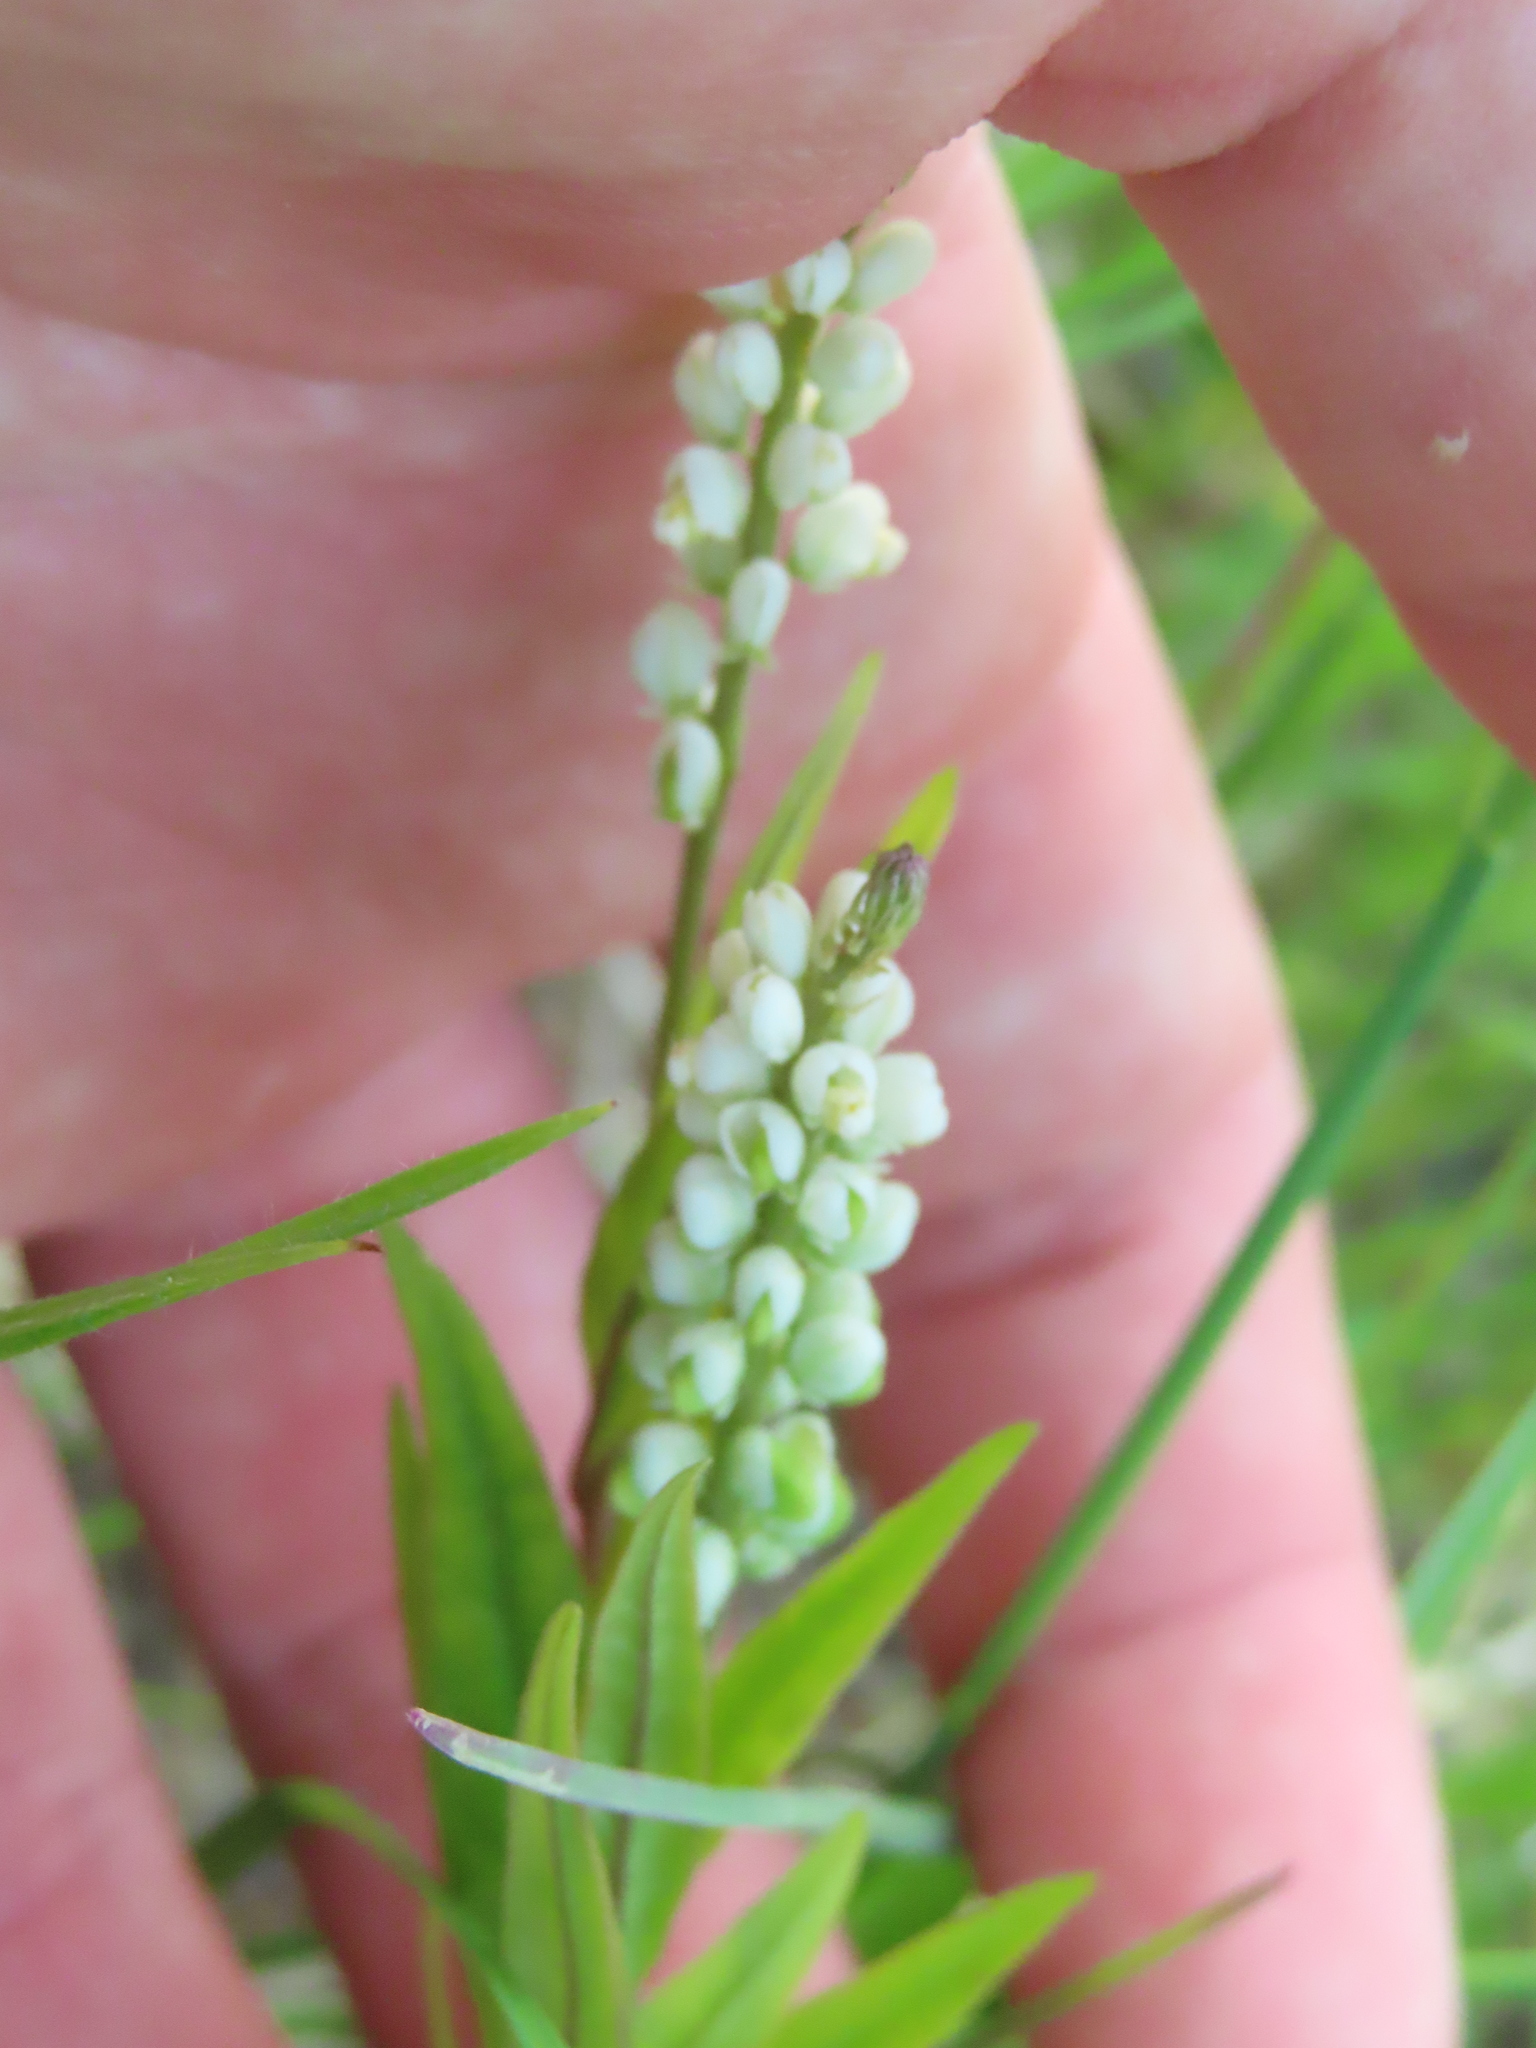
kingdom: Plantae
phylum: Tracheophyta
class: Magnoliopsida
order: Fabales
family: Polygalaceae
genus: Polygala
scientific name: Polygala senega
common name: Seneca snakeroot
